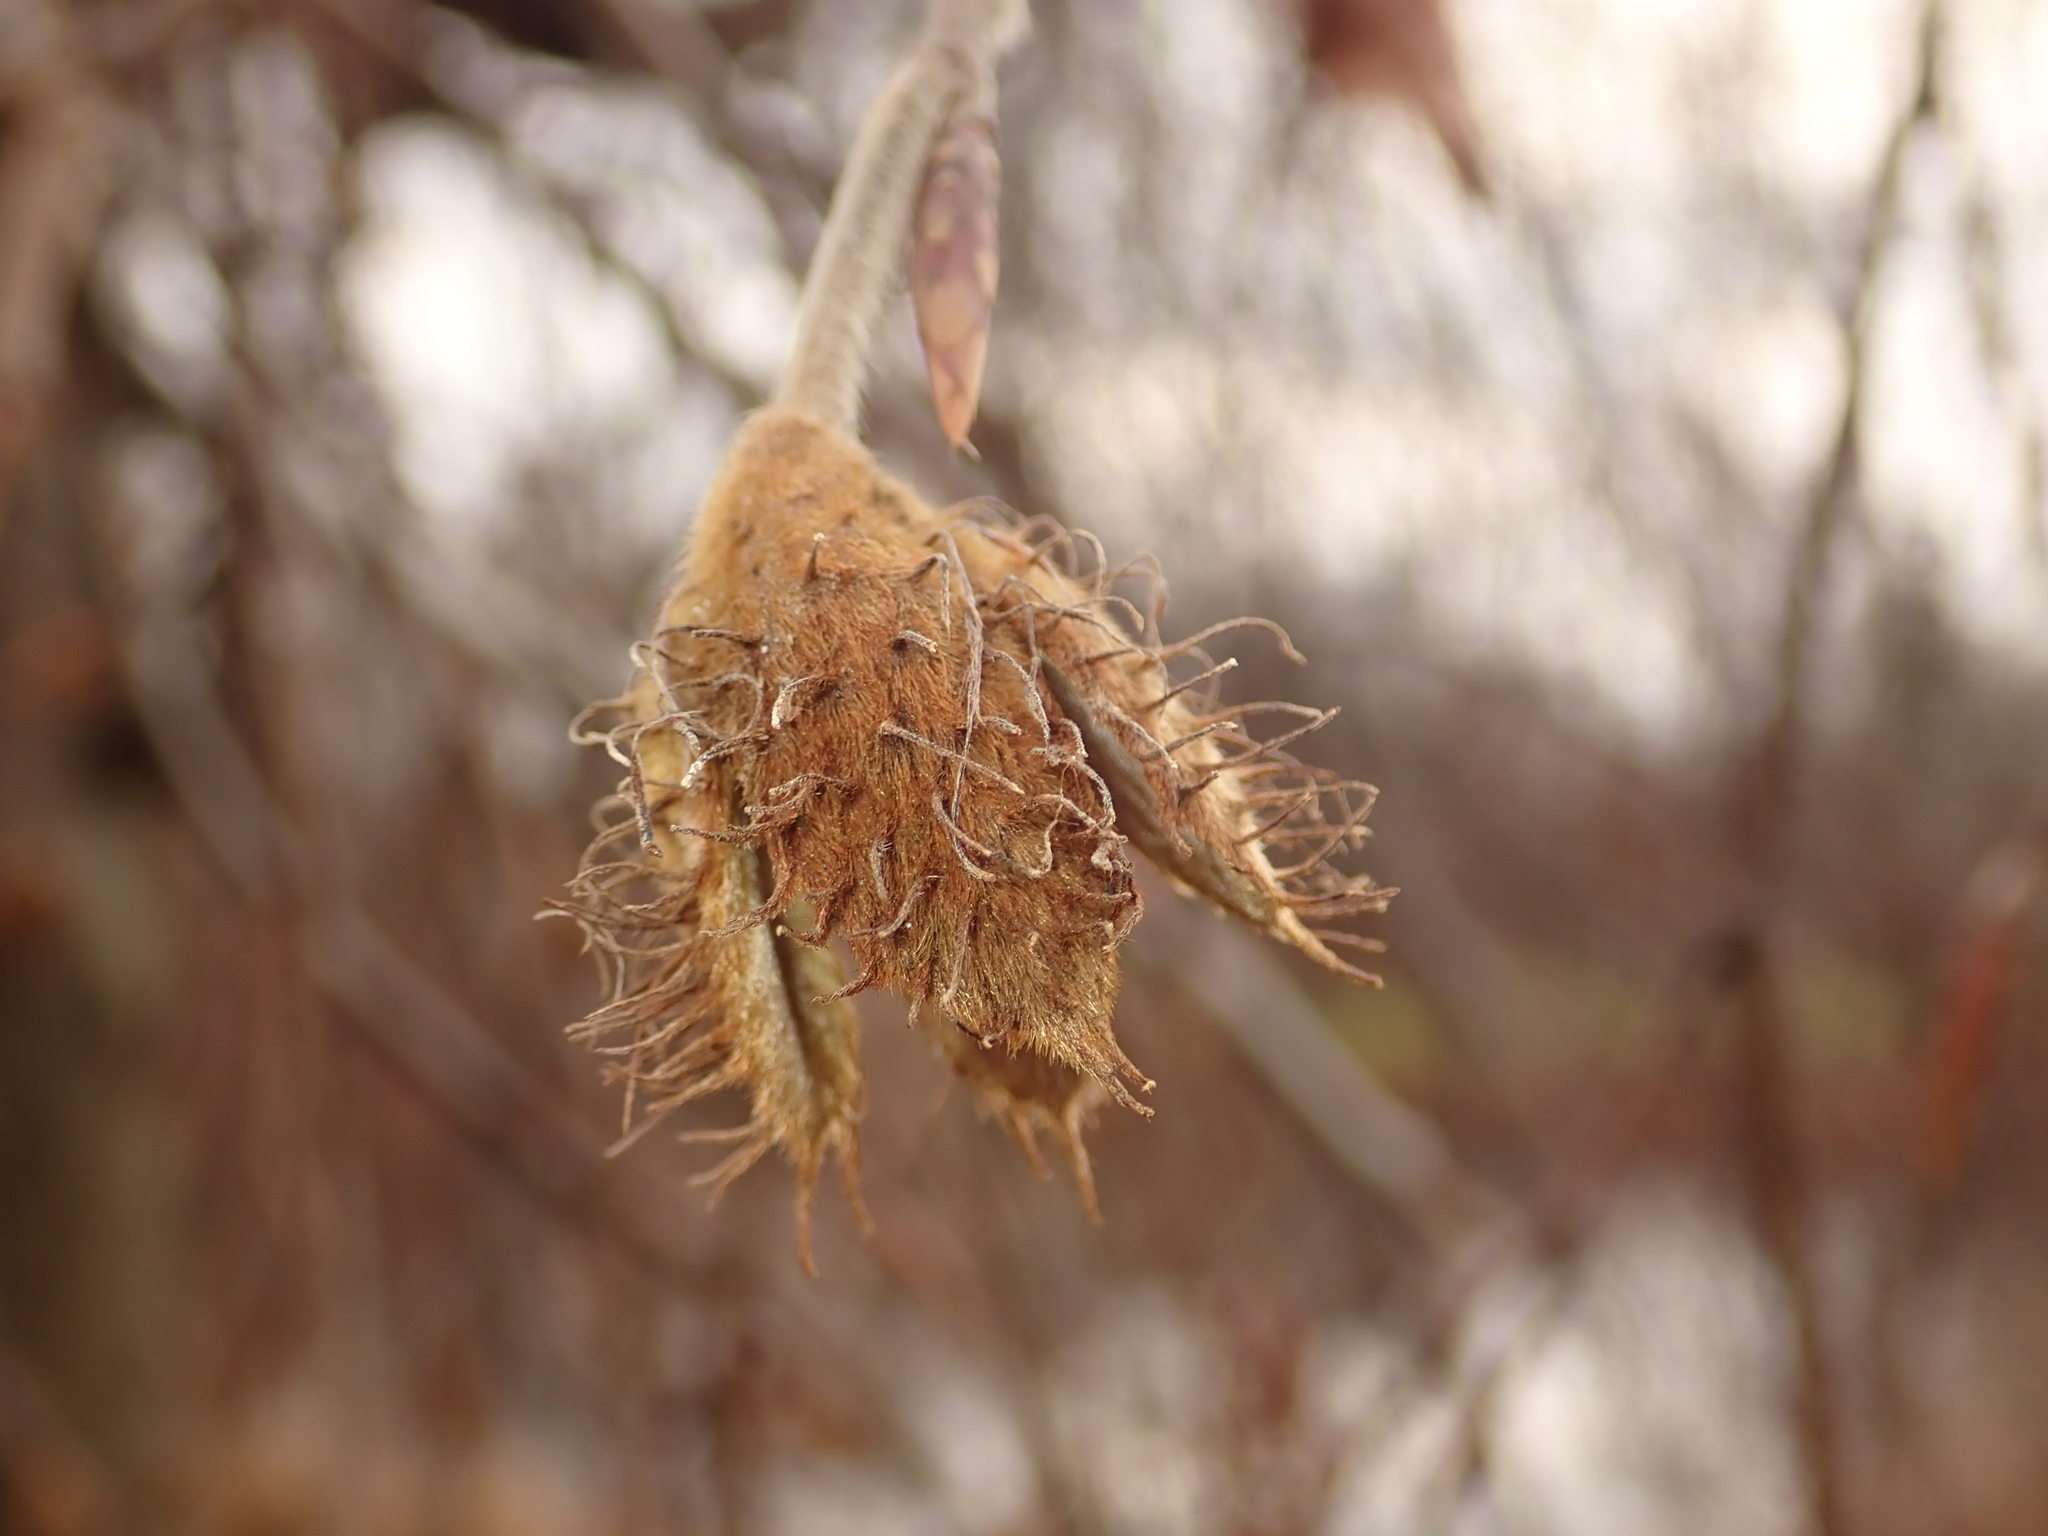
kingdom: Plantae
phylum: Tracheophyta
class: Magnoliopsida
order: Fagales
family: Fagaceae
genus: Fagus
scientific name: Fagus sylvatica
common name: Beech
